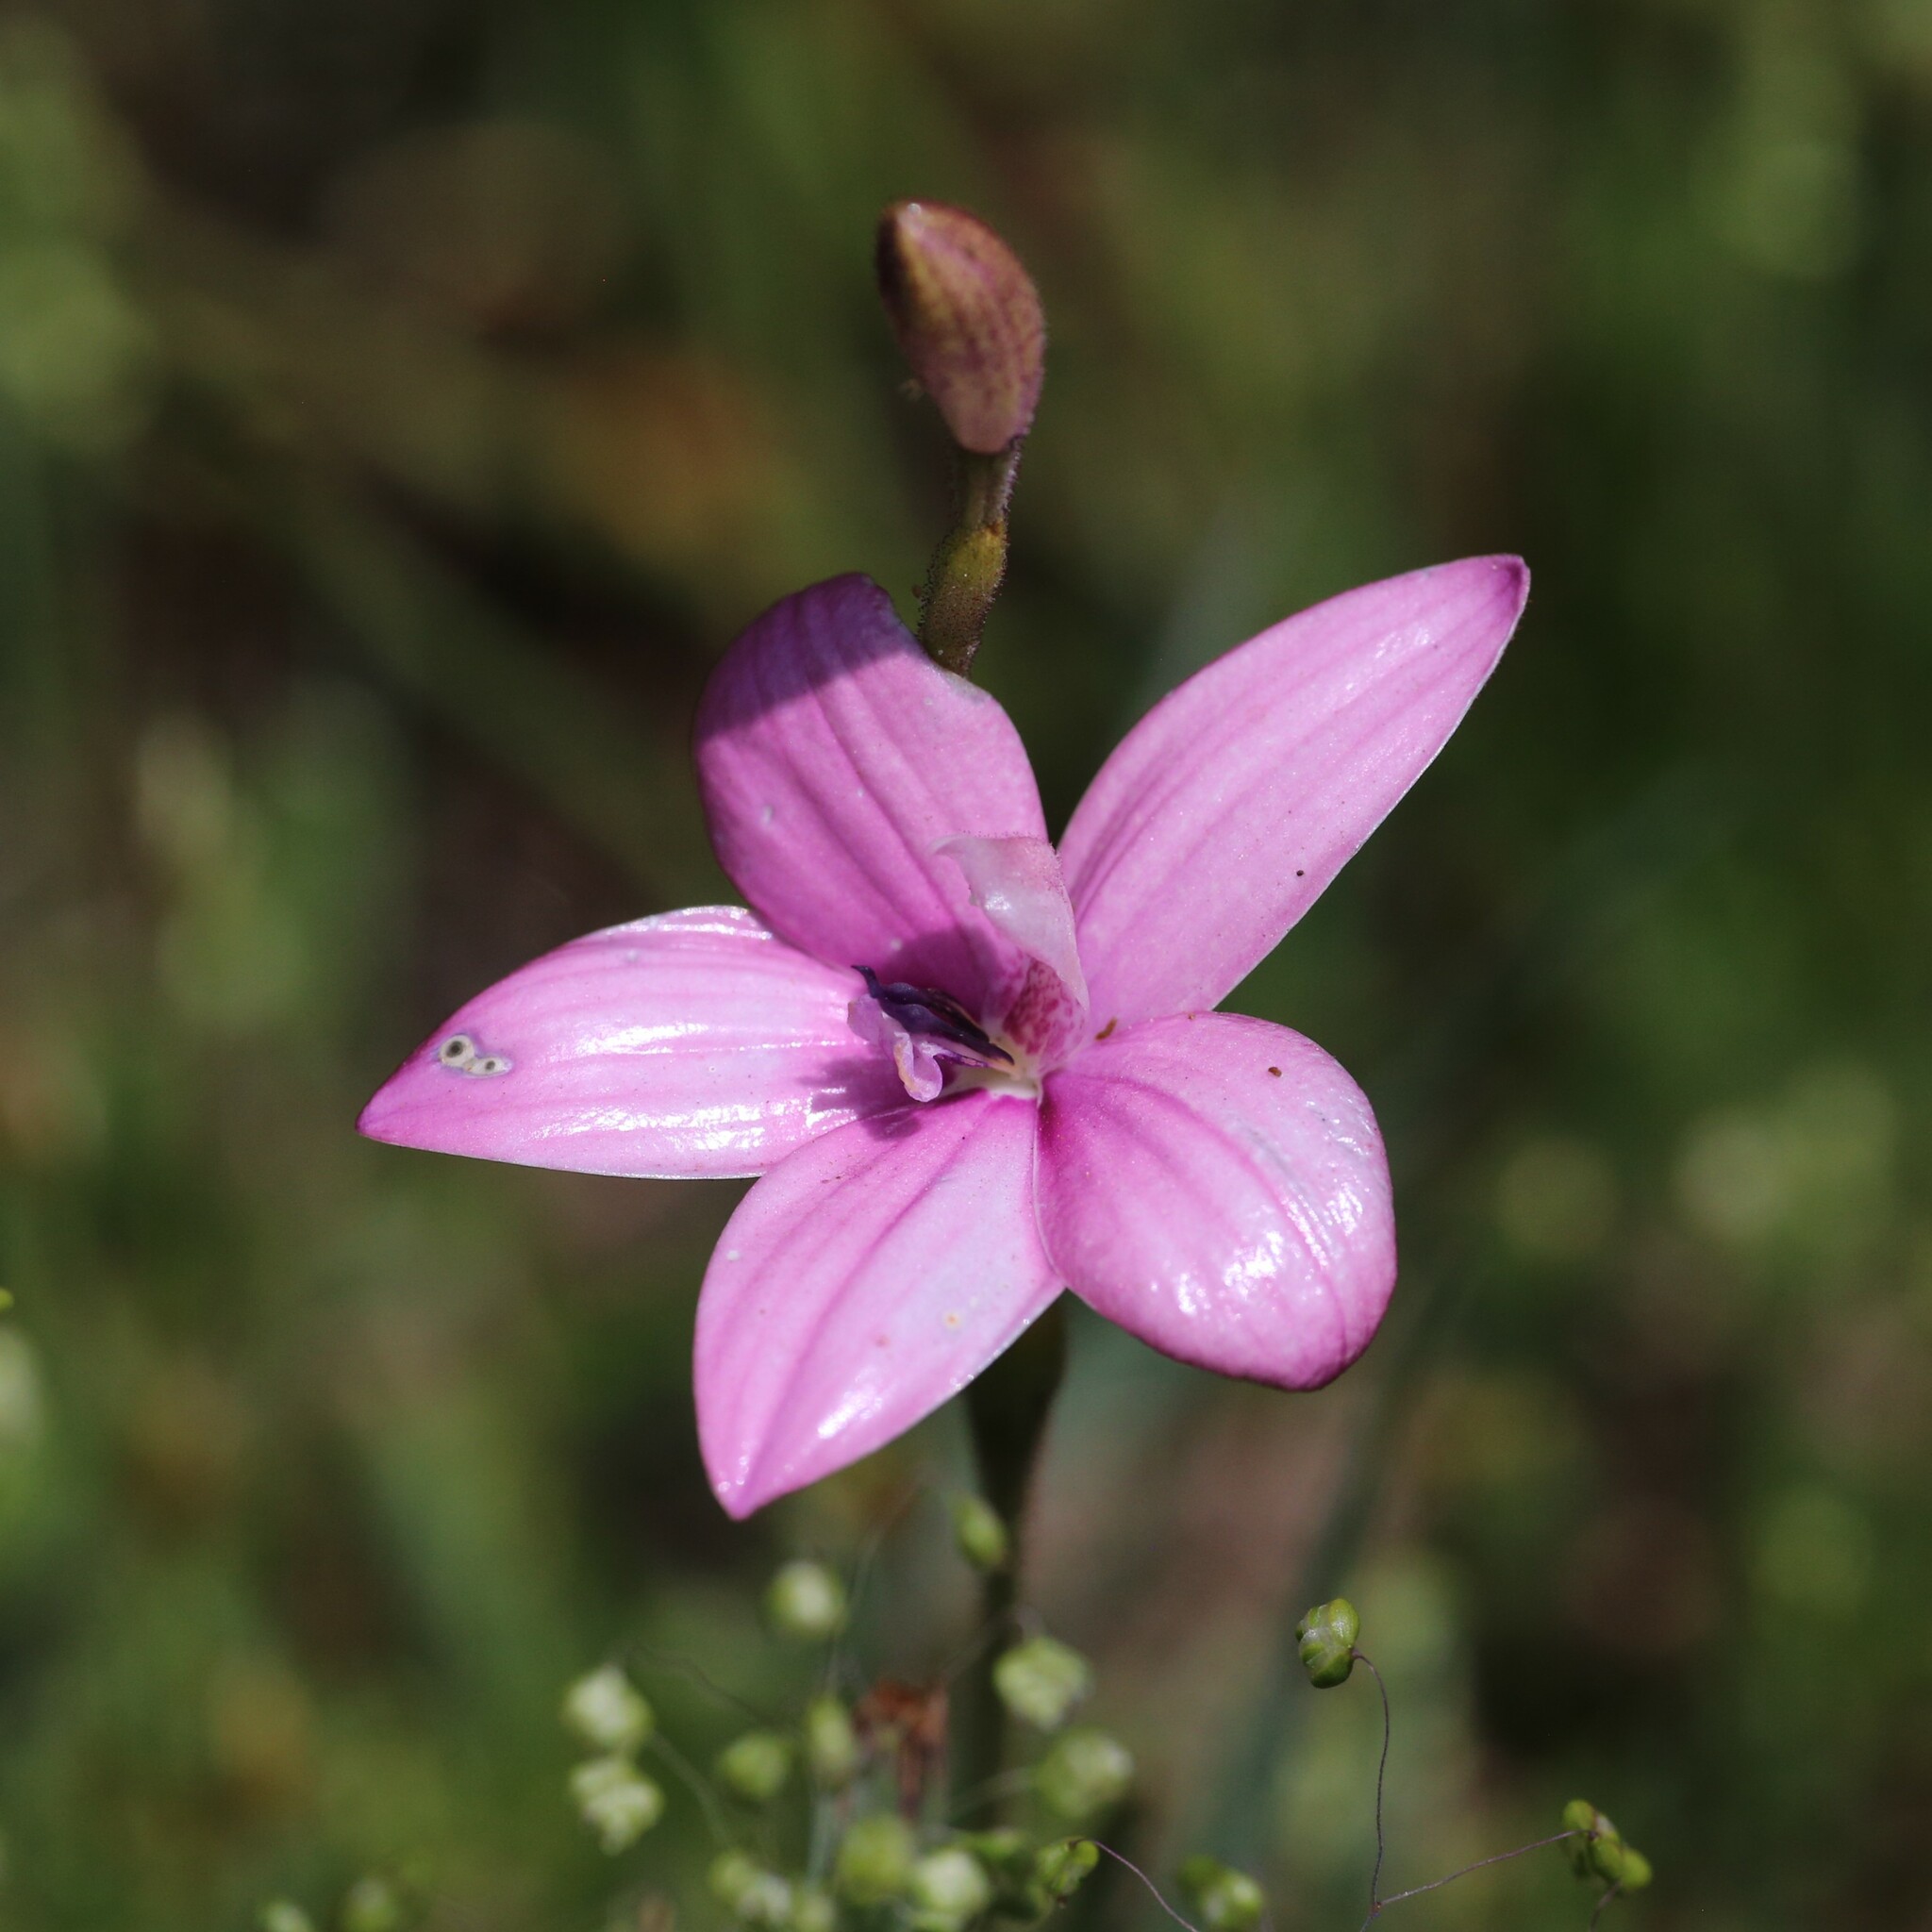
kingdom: Plantae
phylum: Tracheophyta
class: Liliopsida
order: Asparagales
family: Orchidaceae
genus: Caladenia
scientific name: Caladenia emarginata
